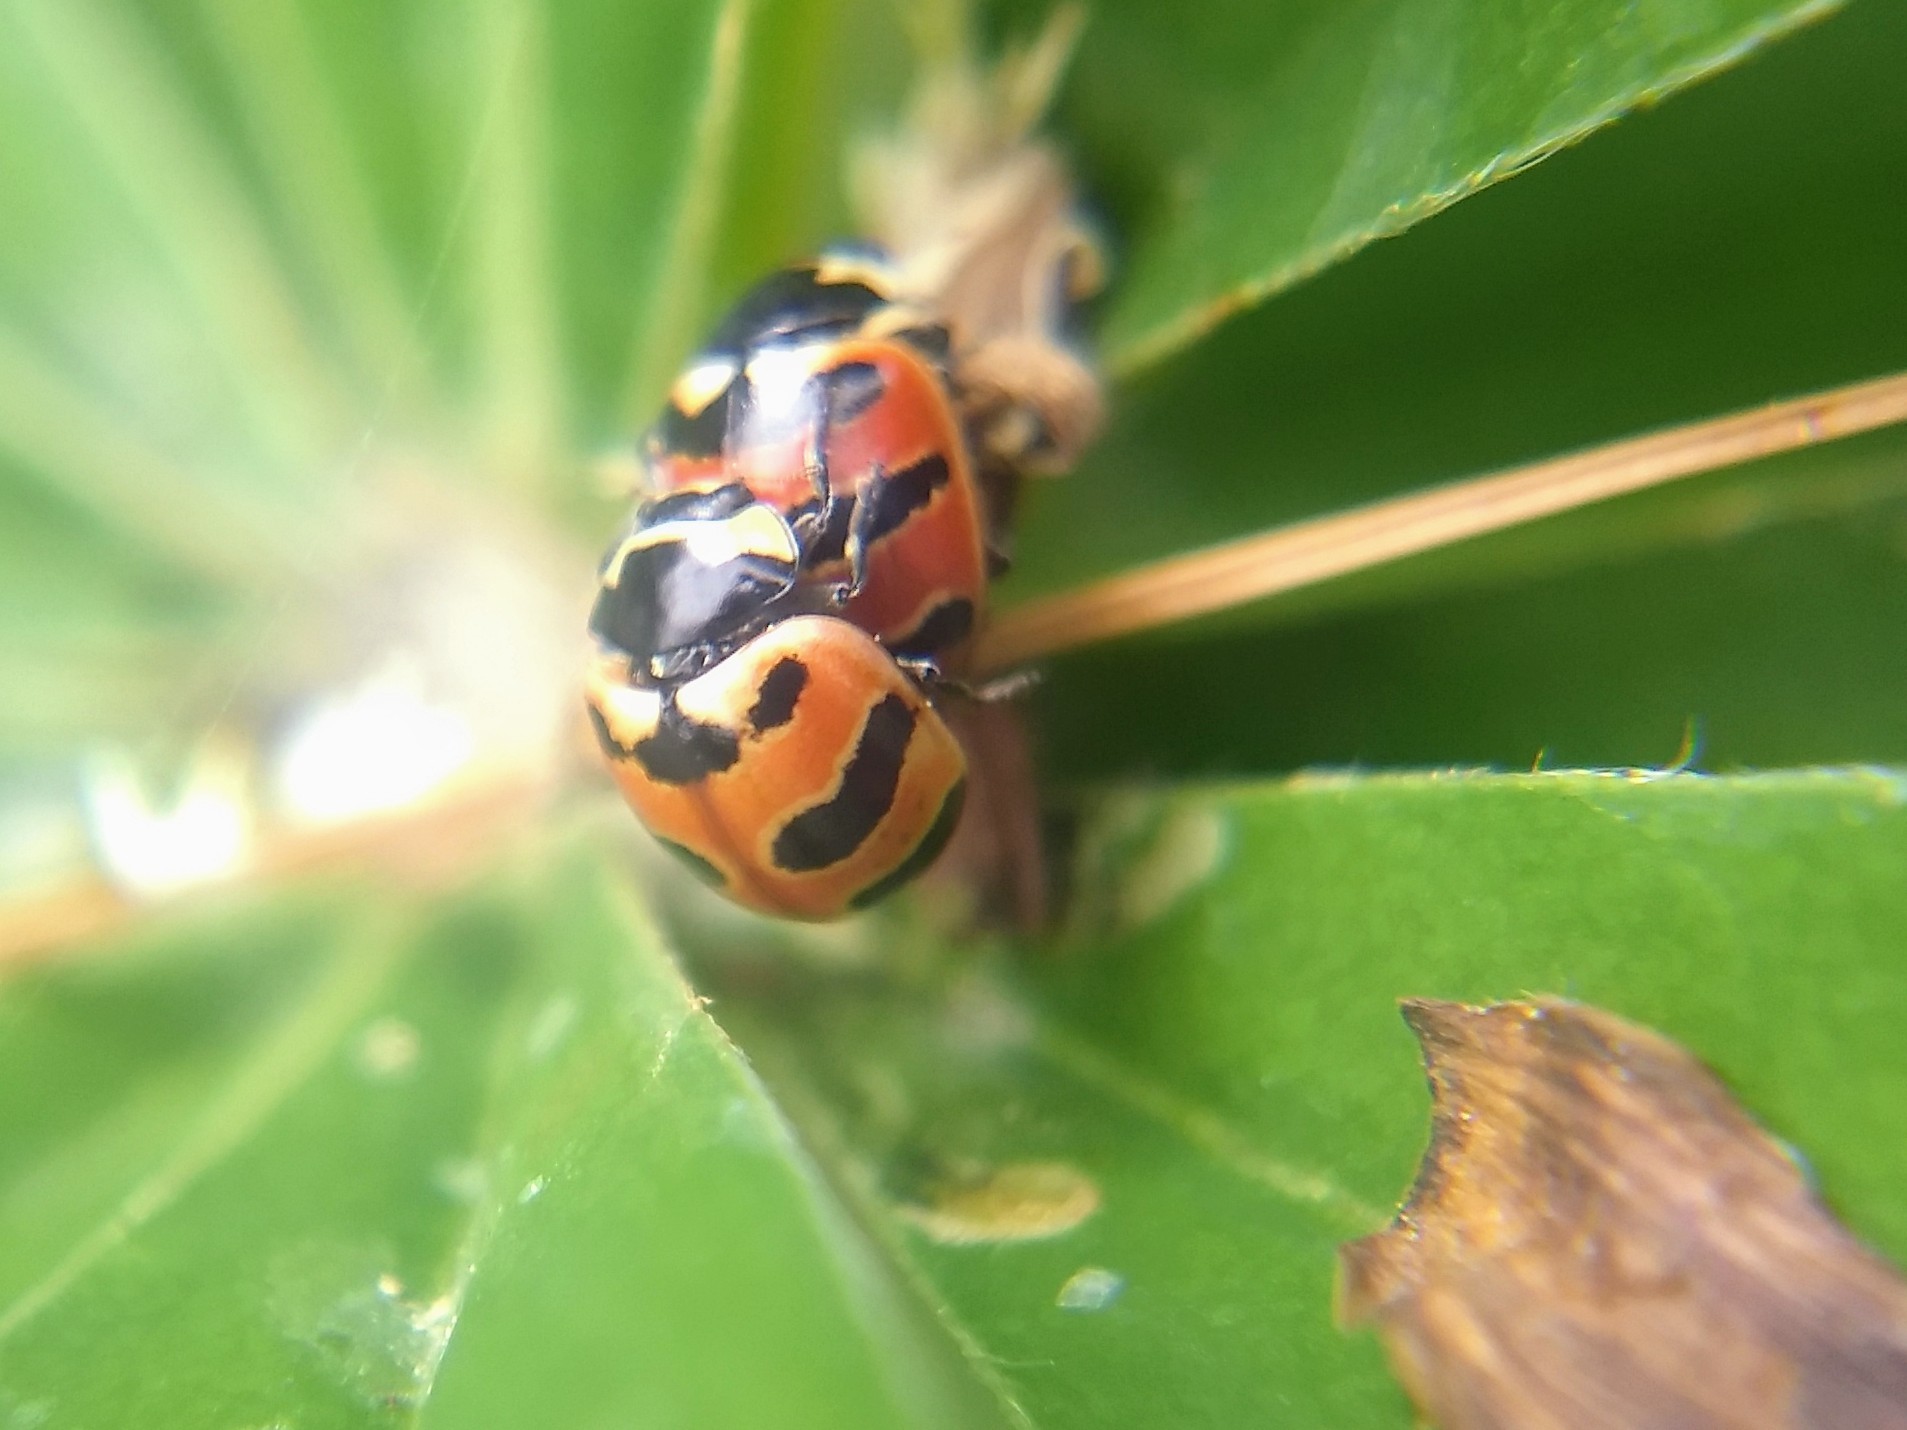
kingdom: Animalia
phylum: Arthropoda
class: Insecta
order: Coleoptera
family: Coccinellidae
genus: Coccinella
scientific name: Coccinella trifasciata
